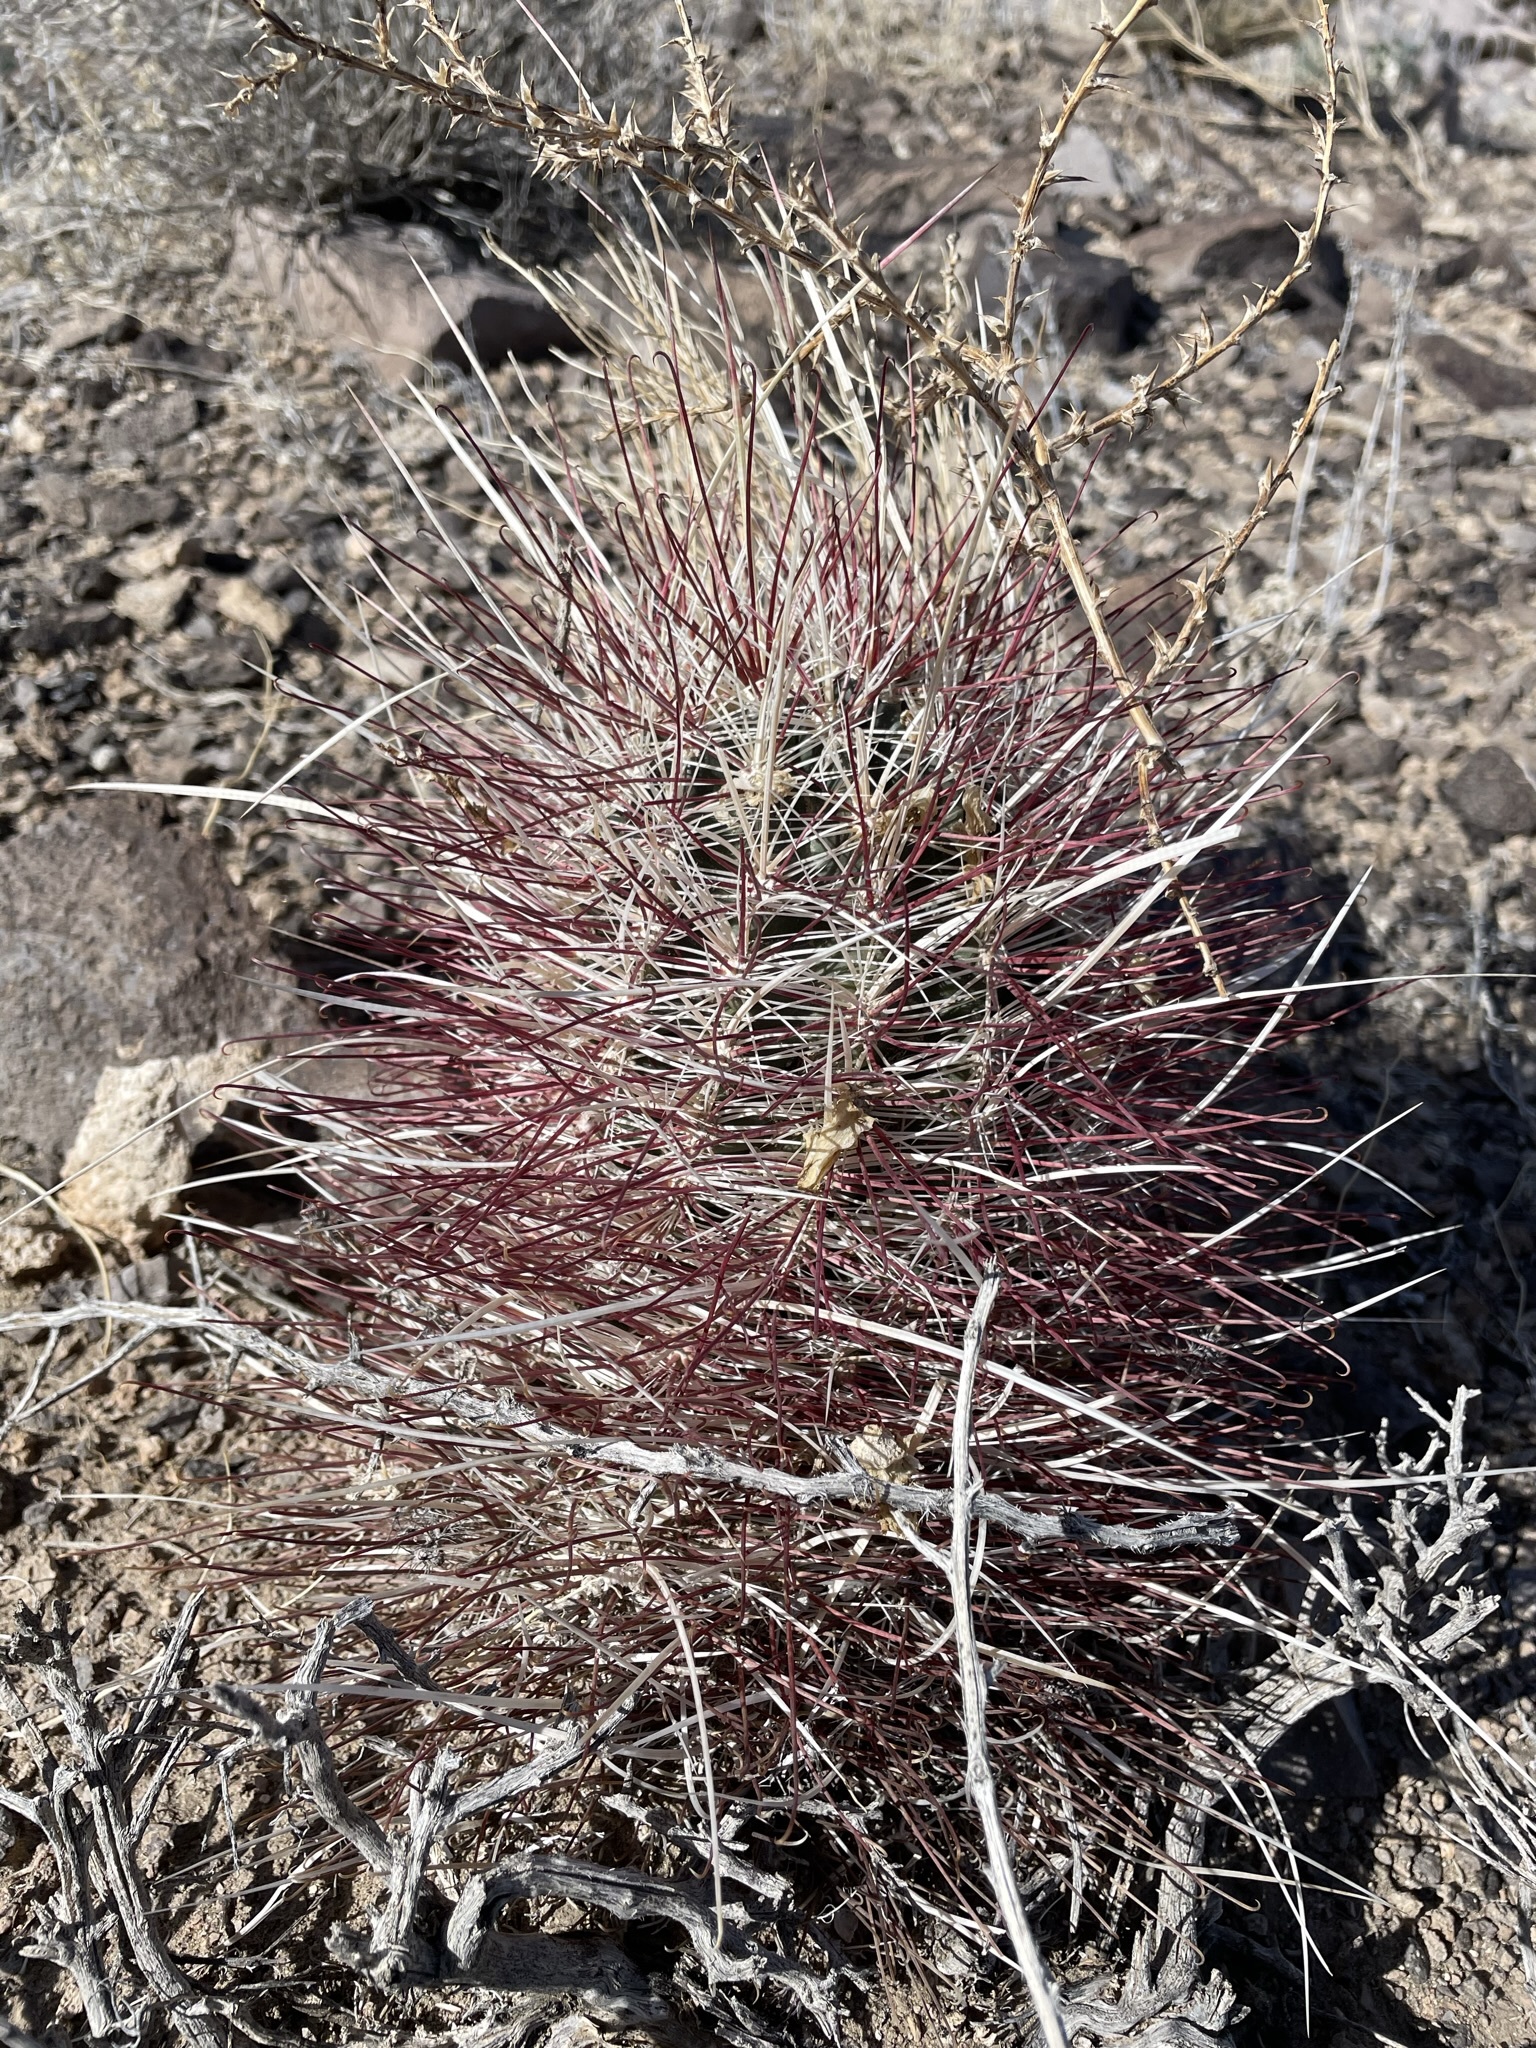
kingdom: Plantae
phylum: Tracheophyta
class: Magnoliopsida
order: Caryophyllales
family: Cactaceae
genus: Sclerocactus
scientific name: Sclerocactus polyancistrus
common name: Mohave fishhook cactus
